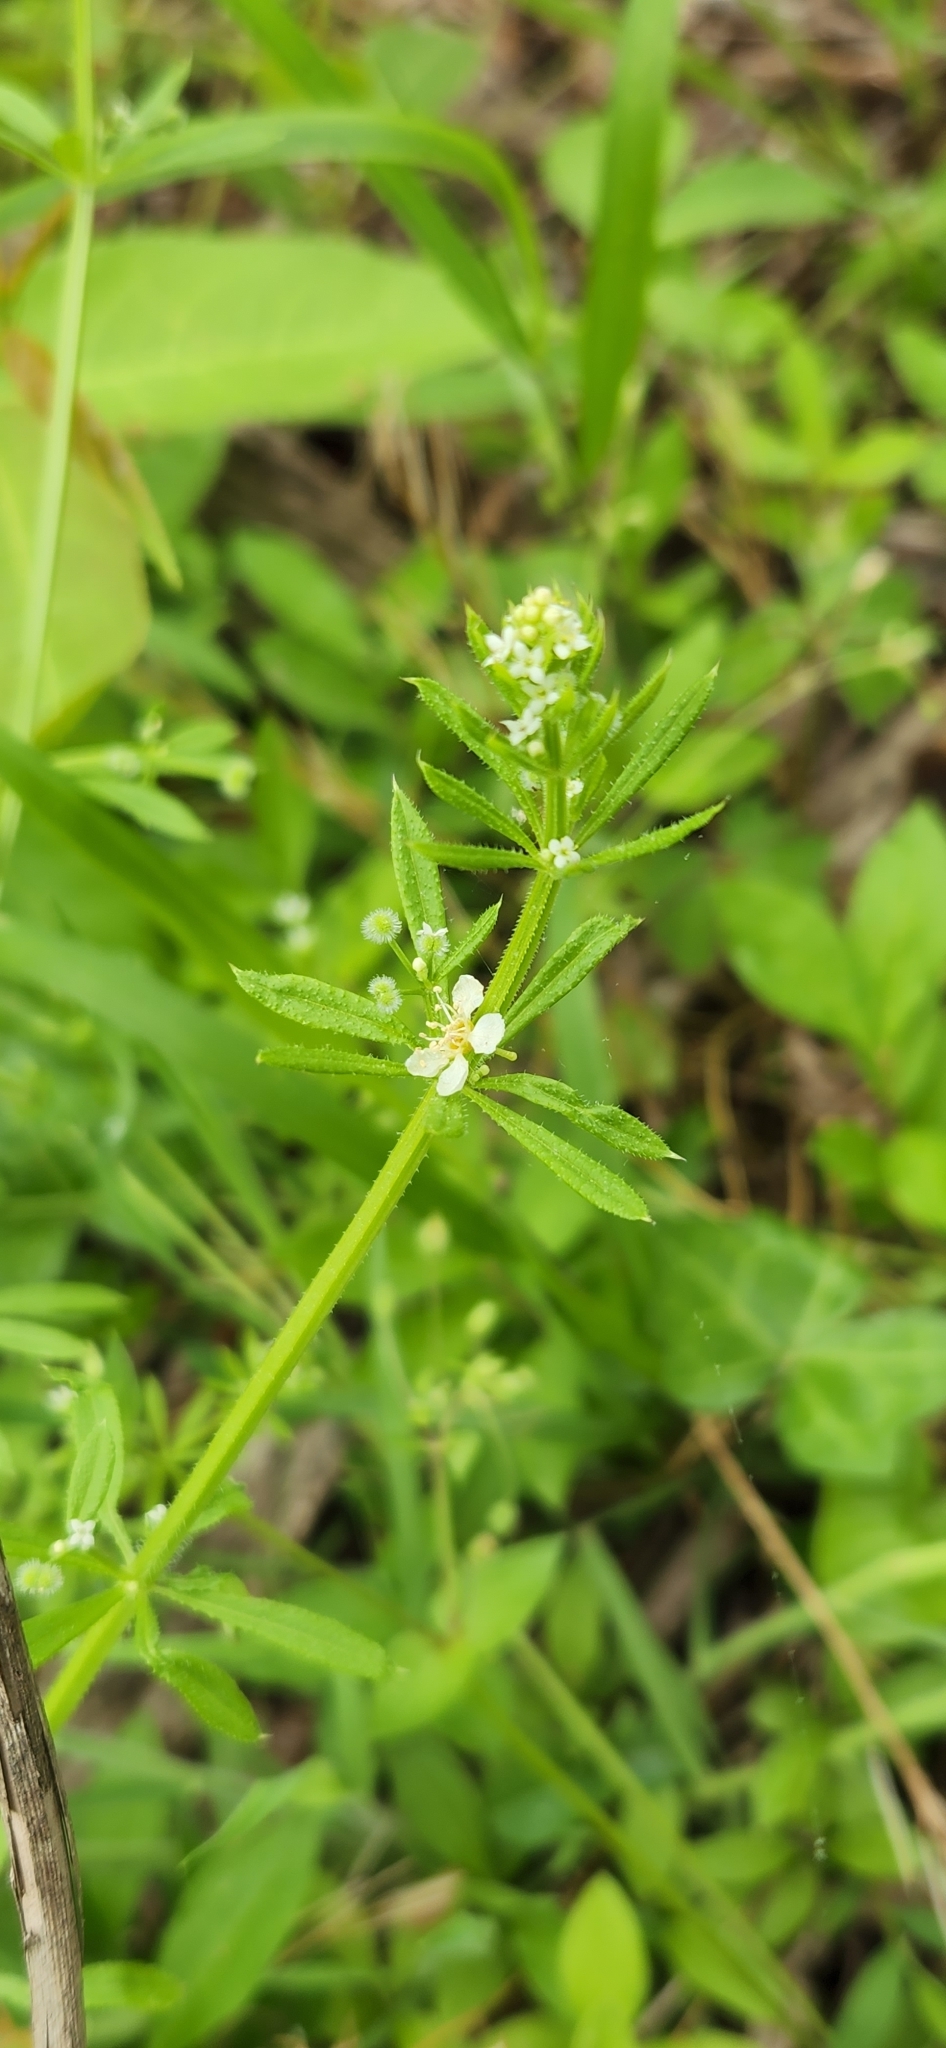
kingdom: Plantae
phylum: Tracheophyta
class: Magnoliopsida
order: Gentianales
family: Rubiaceae
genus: Galium
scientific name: Galium aparine
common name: Cleavers
